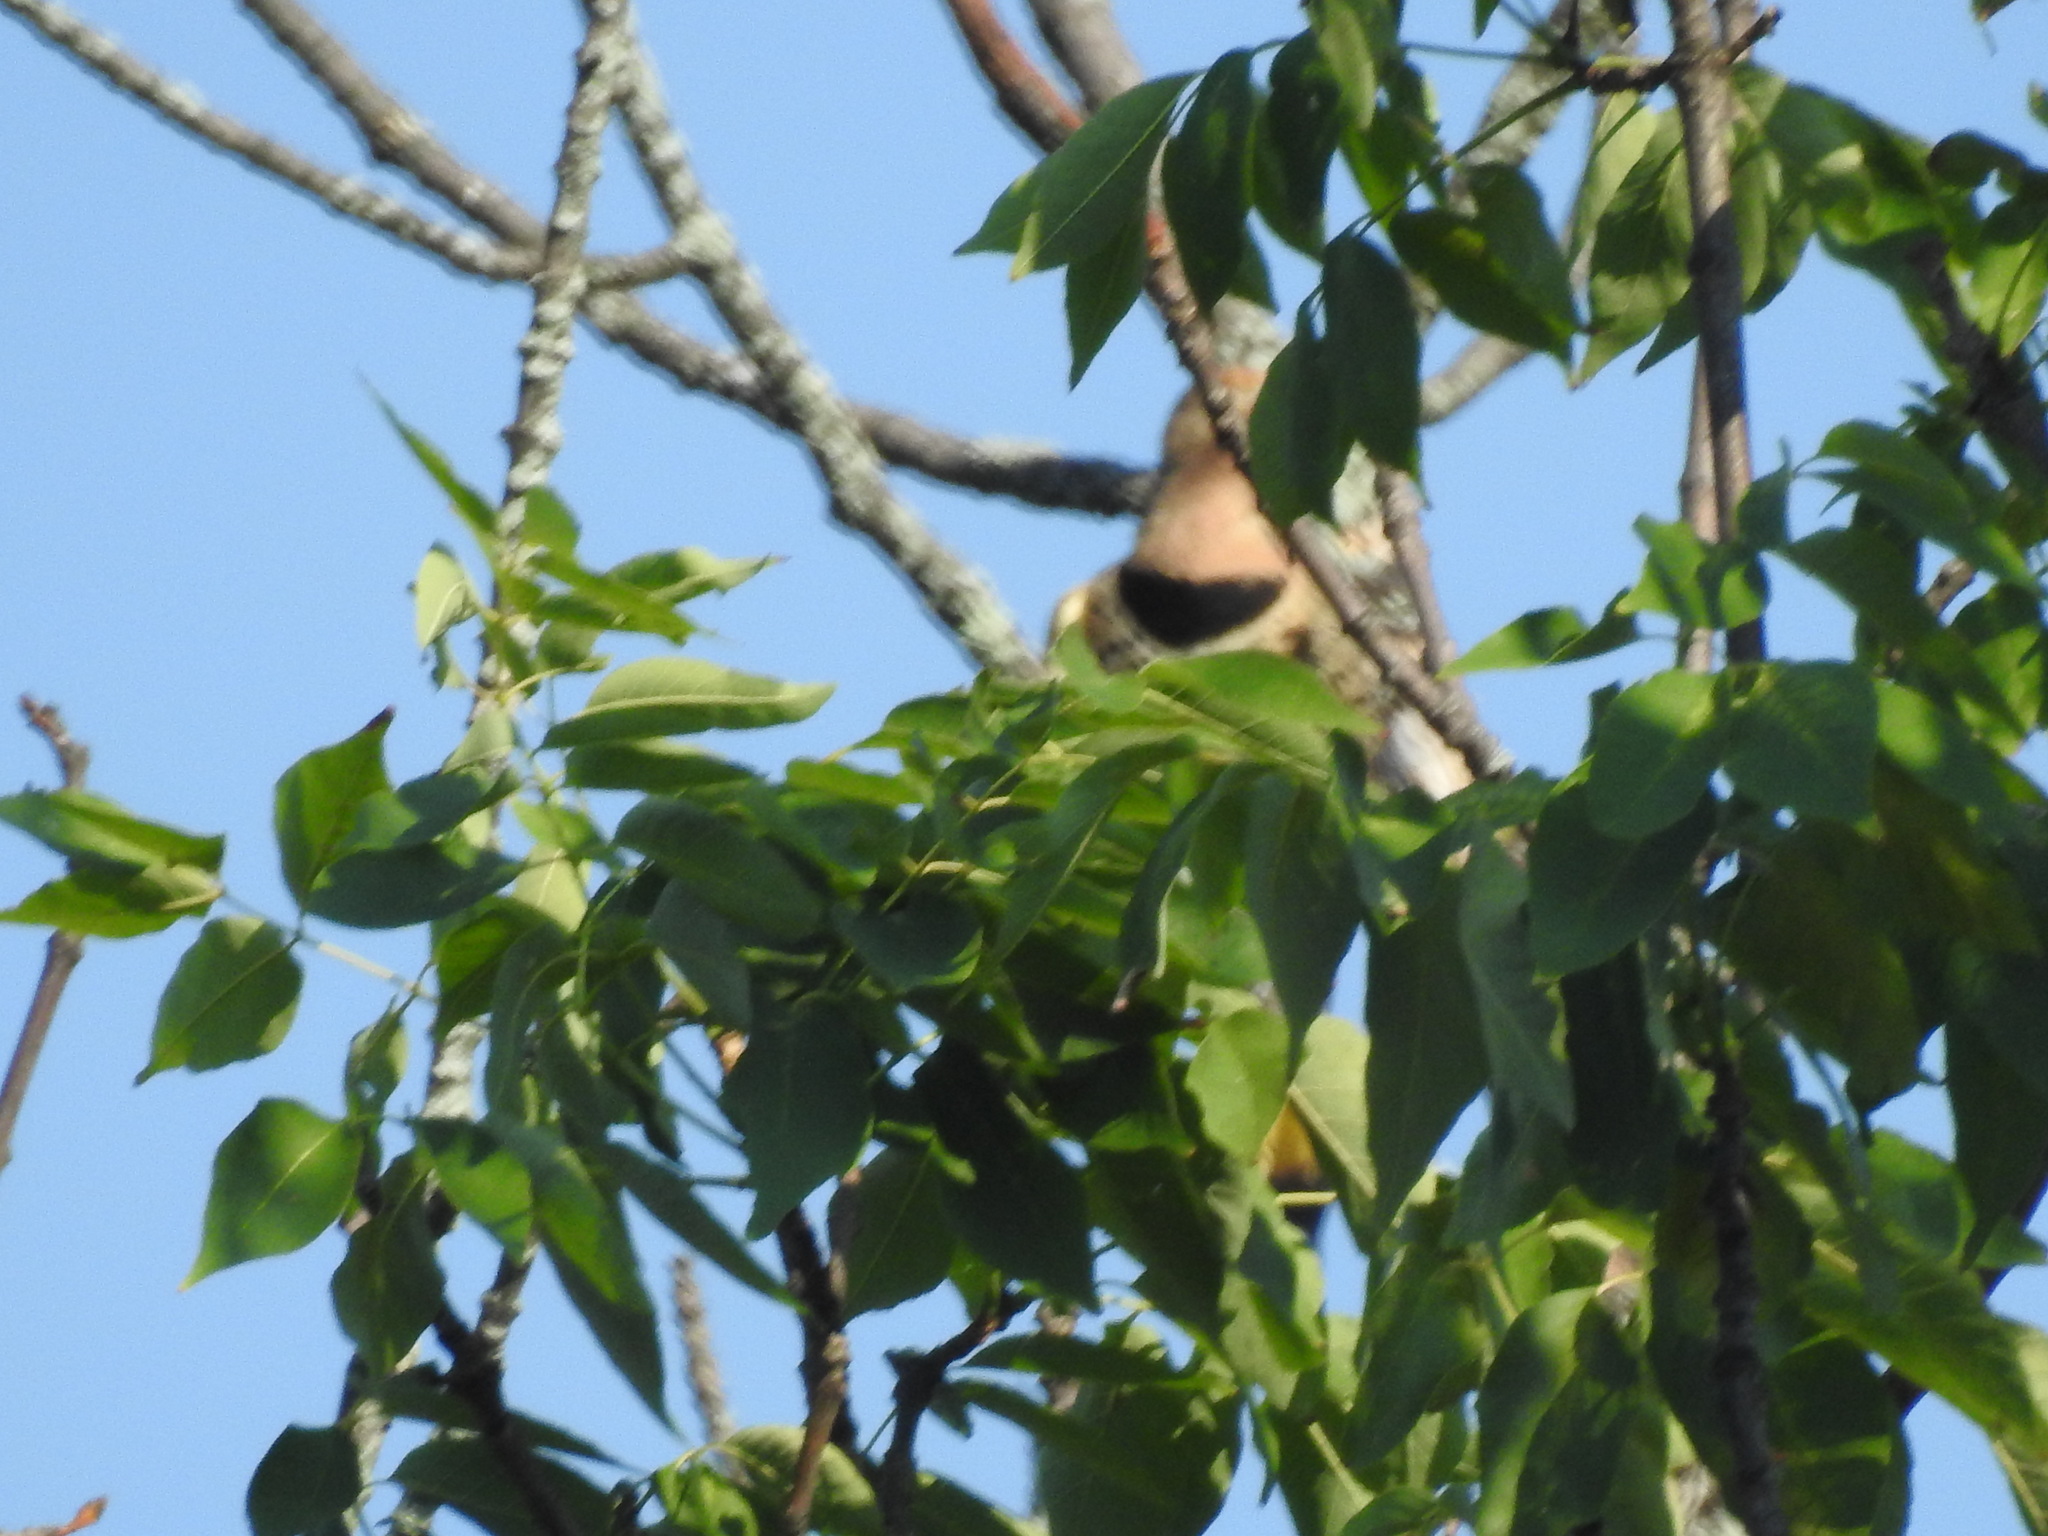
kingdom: Animalia
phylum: Chordata
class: Aves
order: Piciformes
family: Picidae
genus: Colaptes
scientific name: Colaptes auratus
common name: Northern flicker
